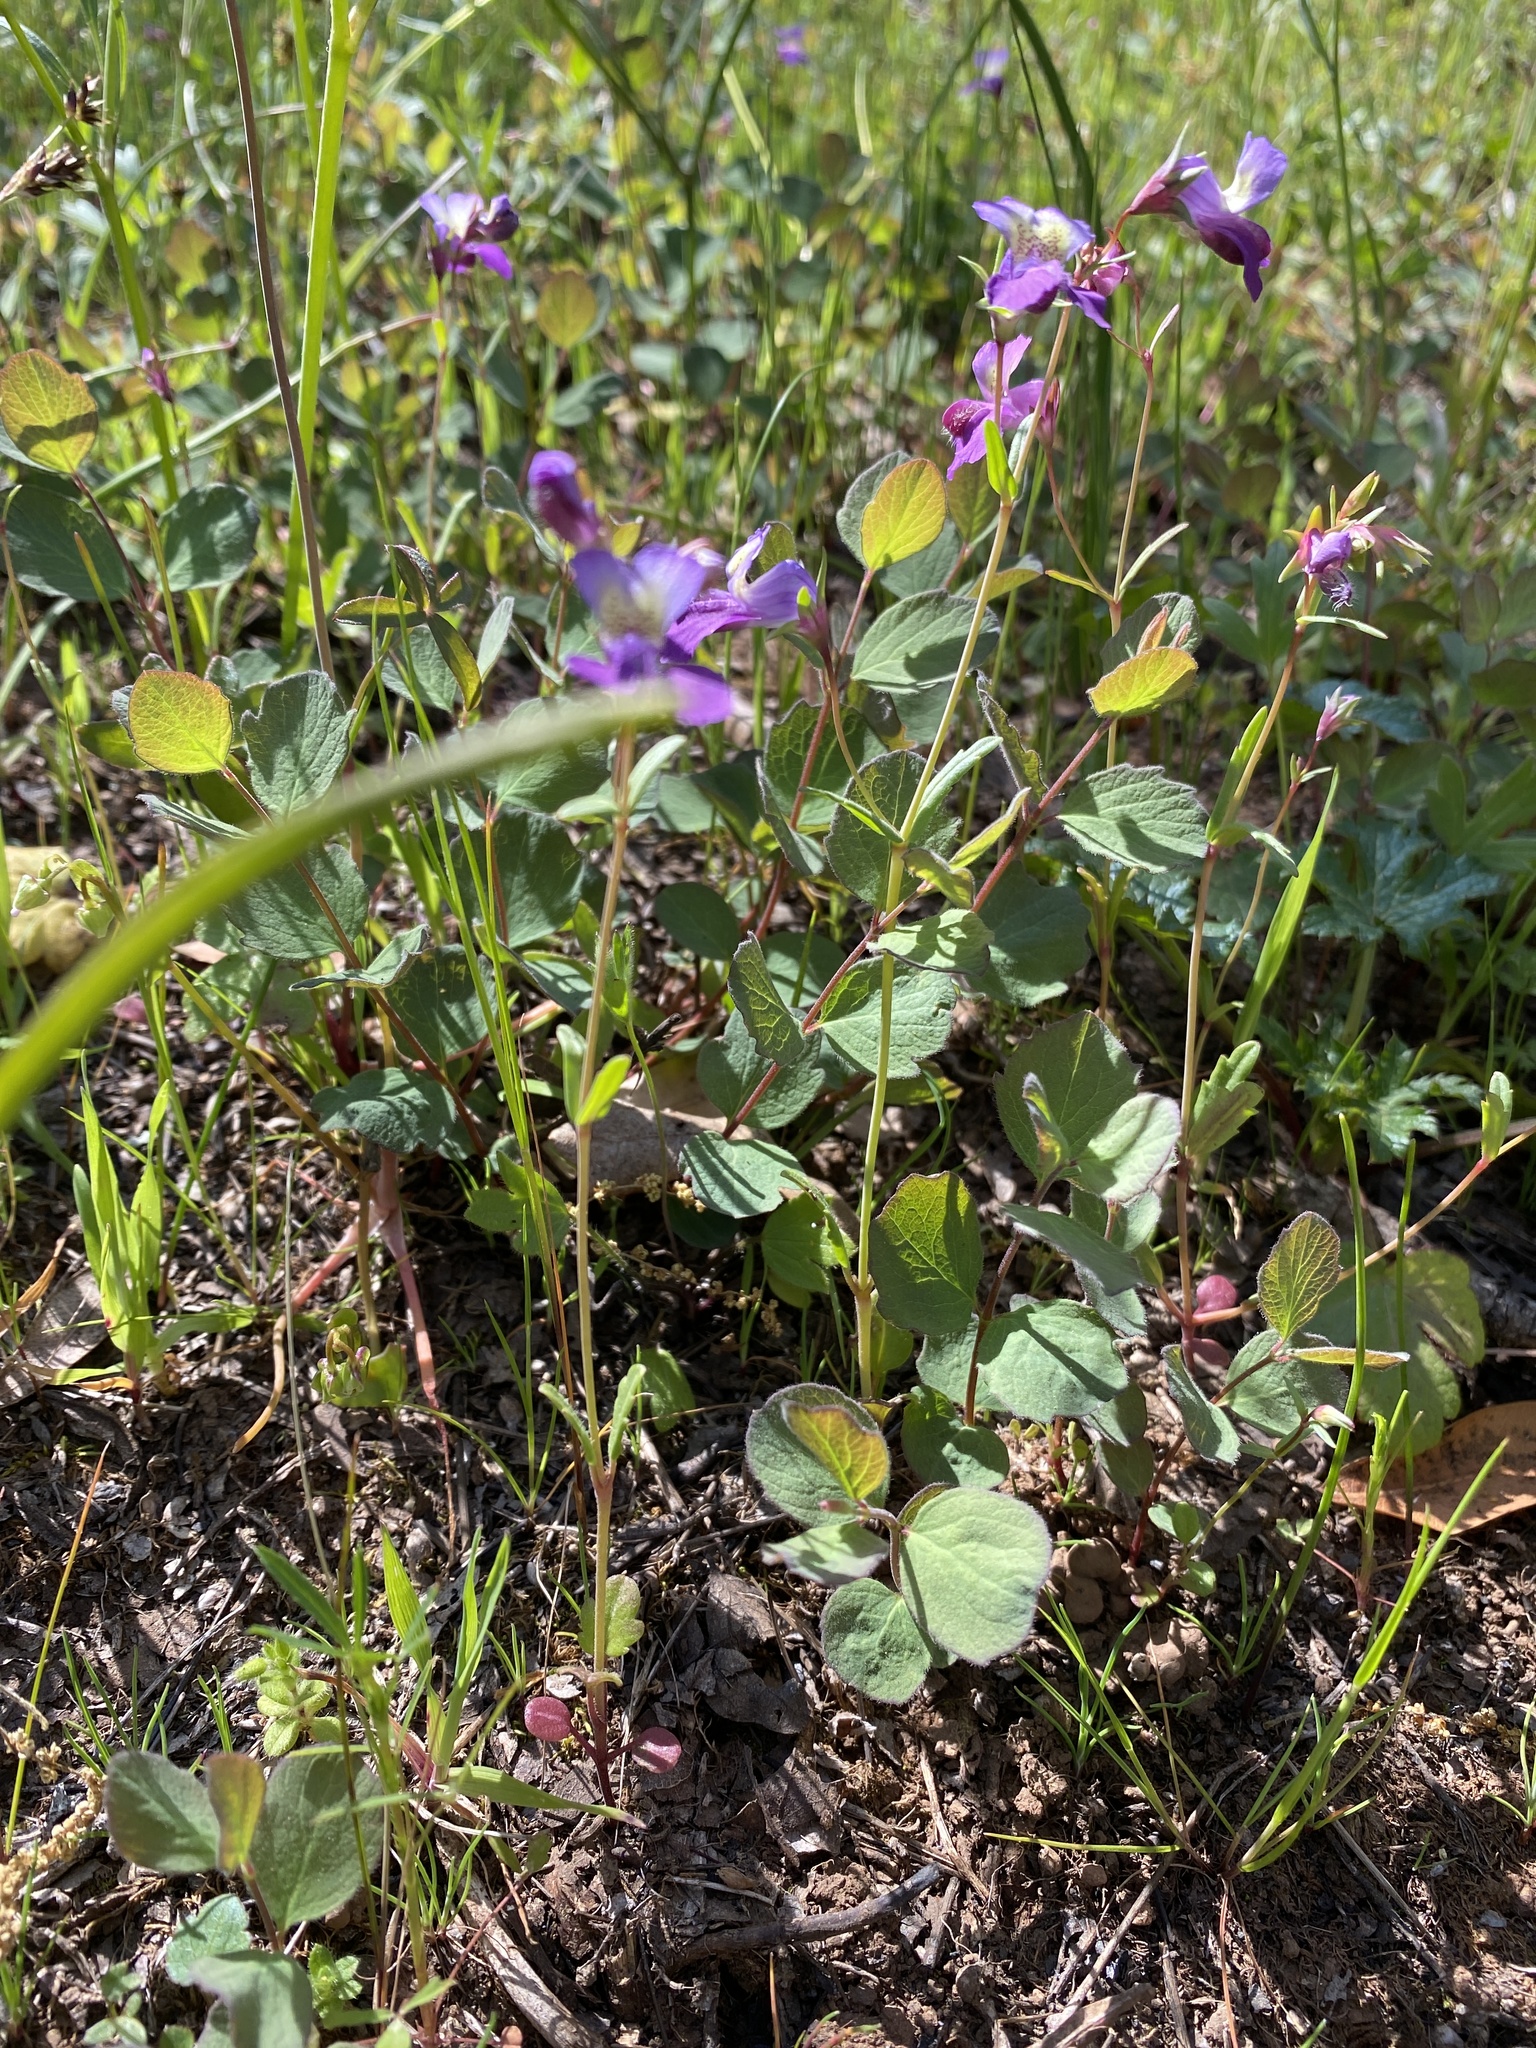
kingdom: Plantae
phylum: Tracheophyta
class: Magnoliopsida
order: Lamiales
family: Plantaginaceae
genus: Collinsia
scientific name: Collinsia sparsiflora
